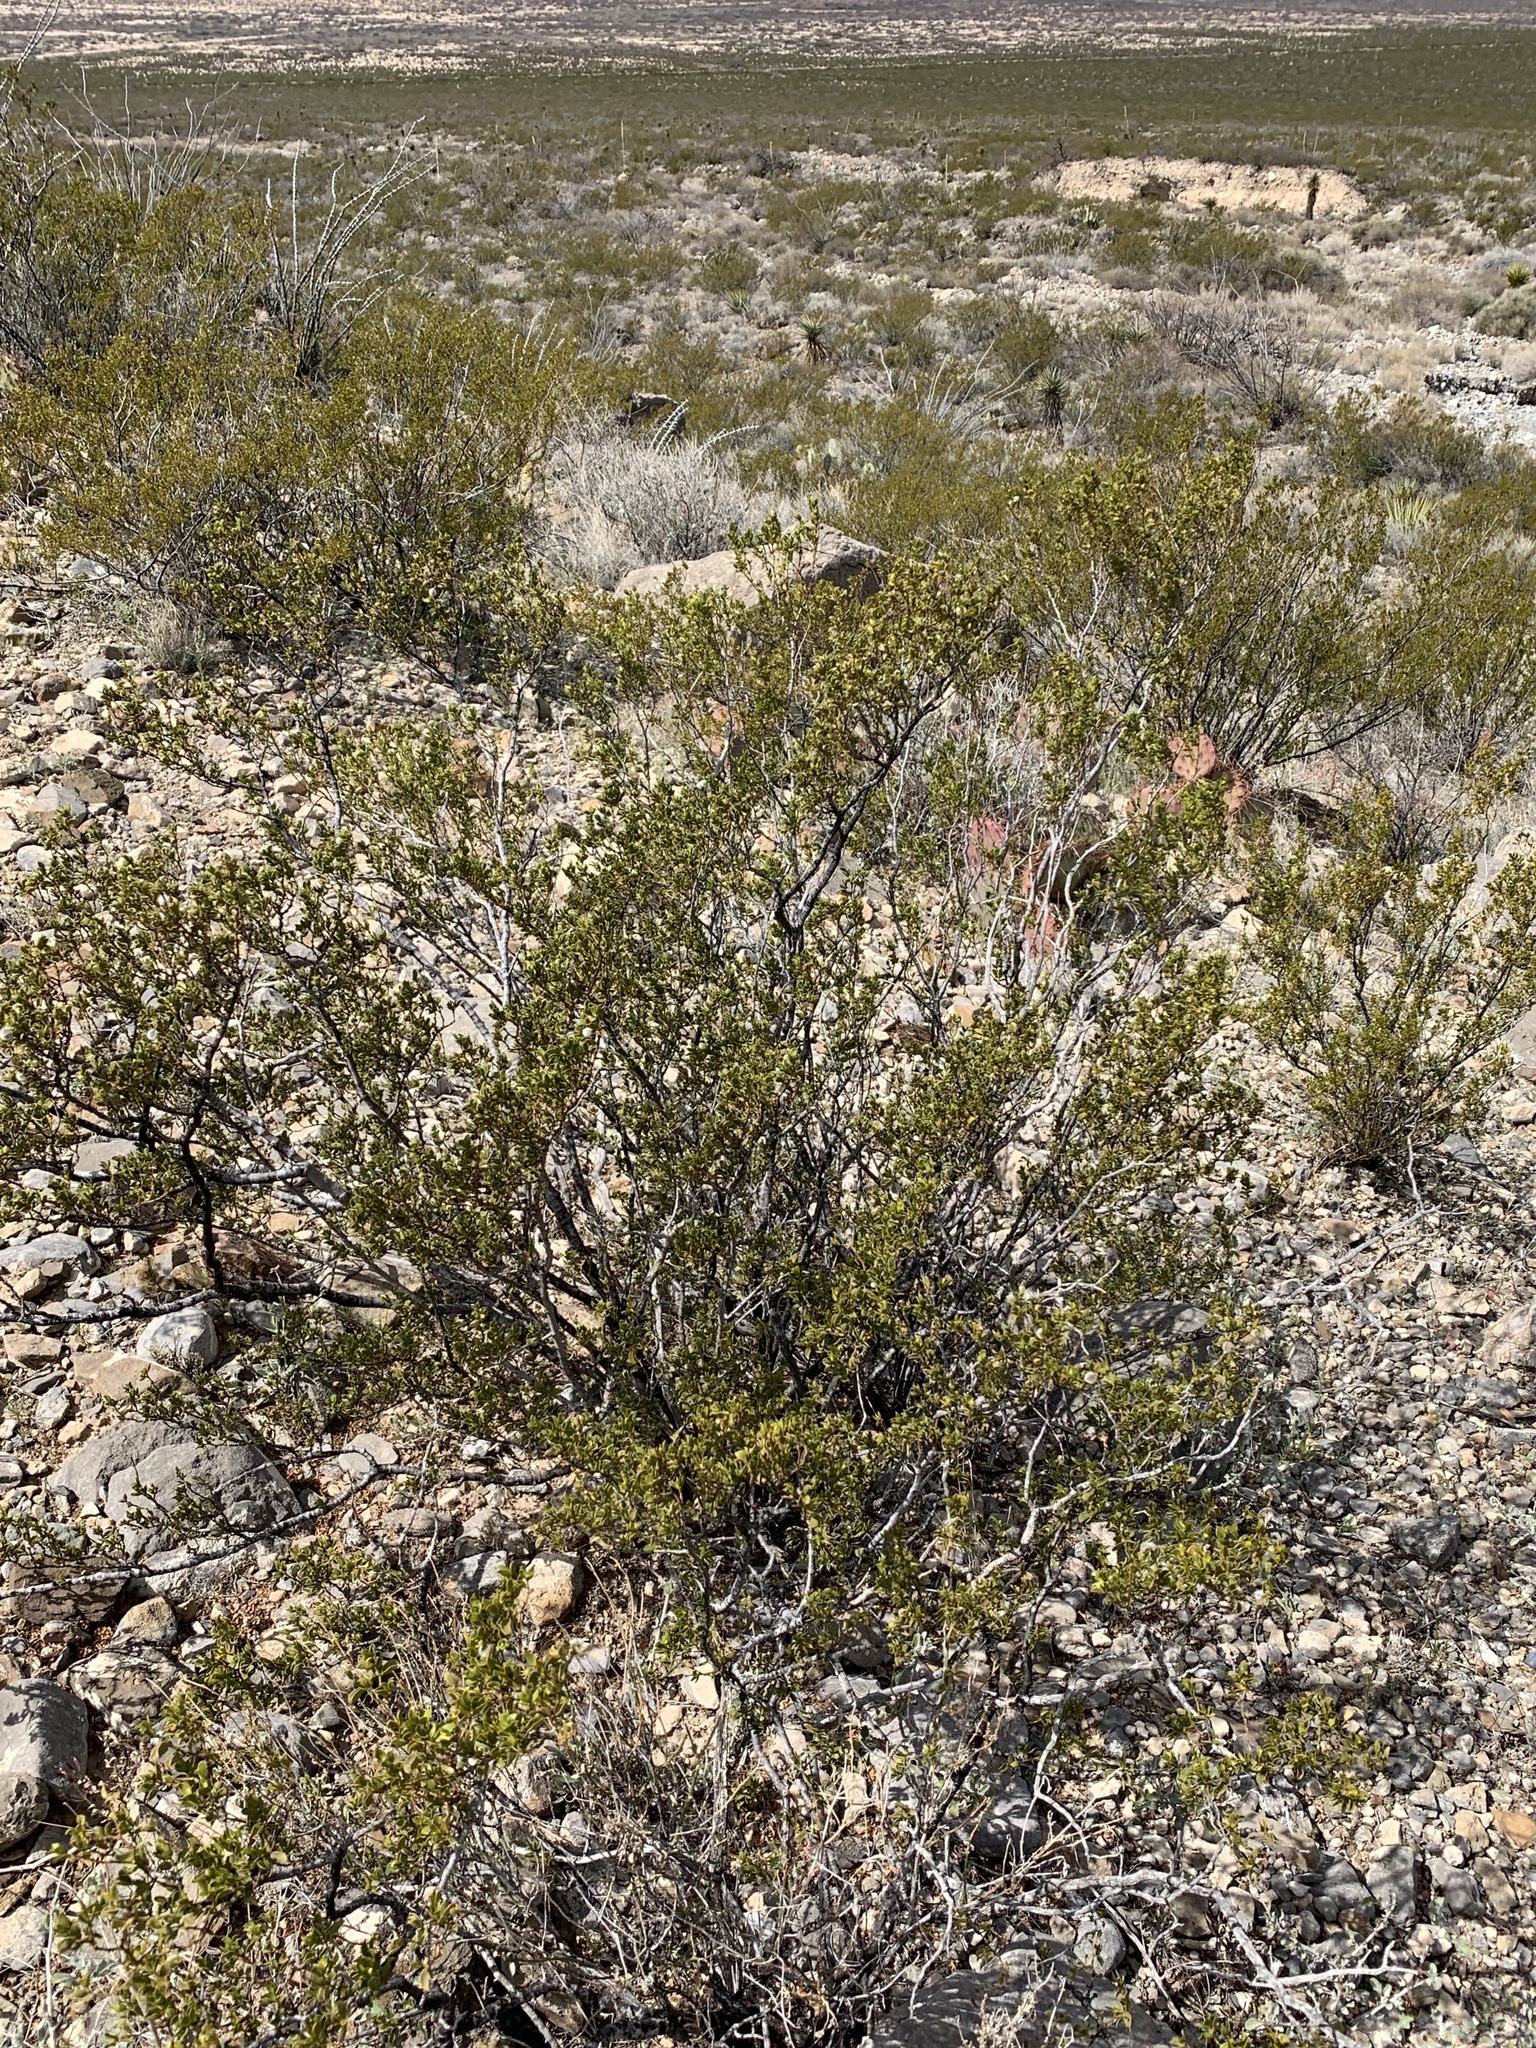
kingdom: Plantae
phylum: Tracheophyta
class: Magnoliopsida
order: Zygophyllales
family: Zygophyllaceae
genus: Larrea
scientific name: Larrea tridentata
